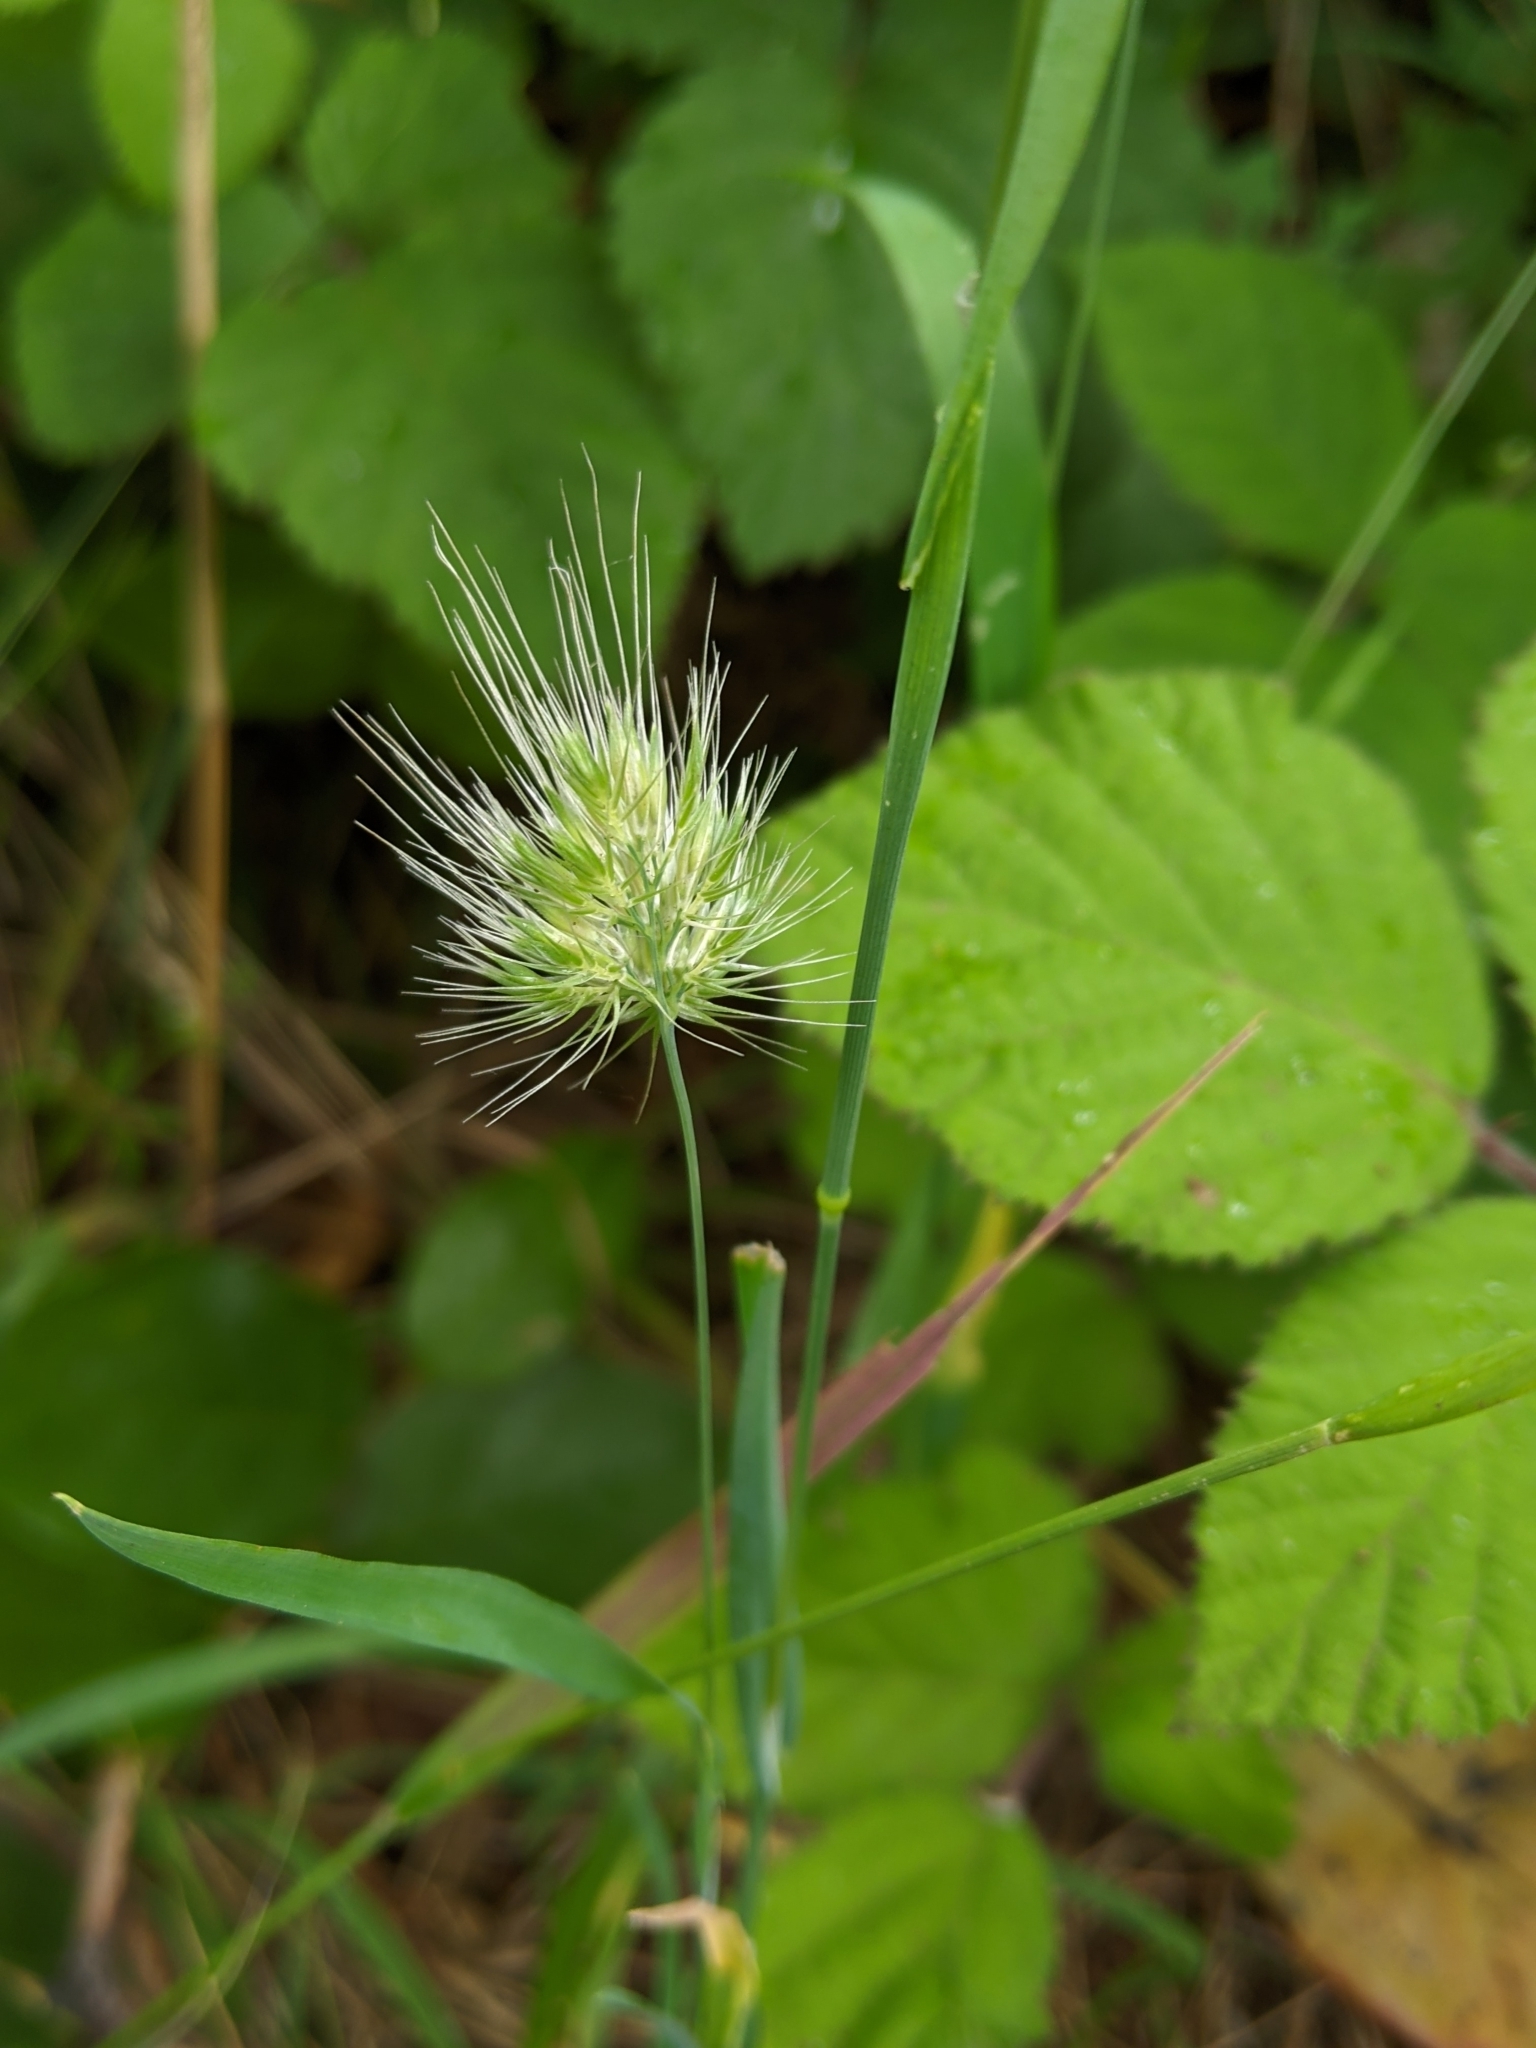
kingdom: Plantae
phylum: Tracheophyta
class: Liliopsida
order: Poales
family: Poaceae
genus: Cynosurus
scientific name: Cynosurus echinatus
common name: Rough dog's-tail
